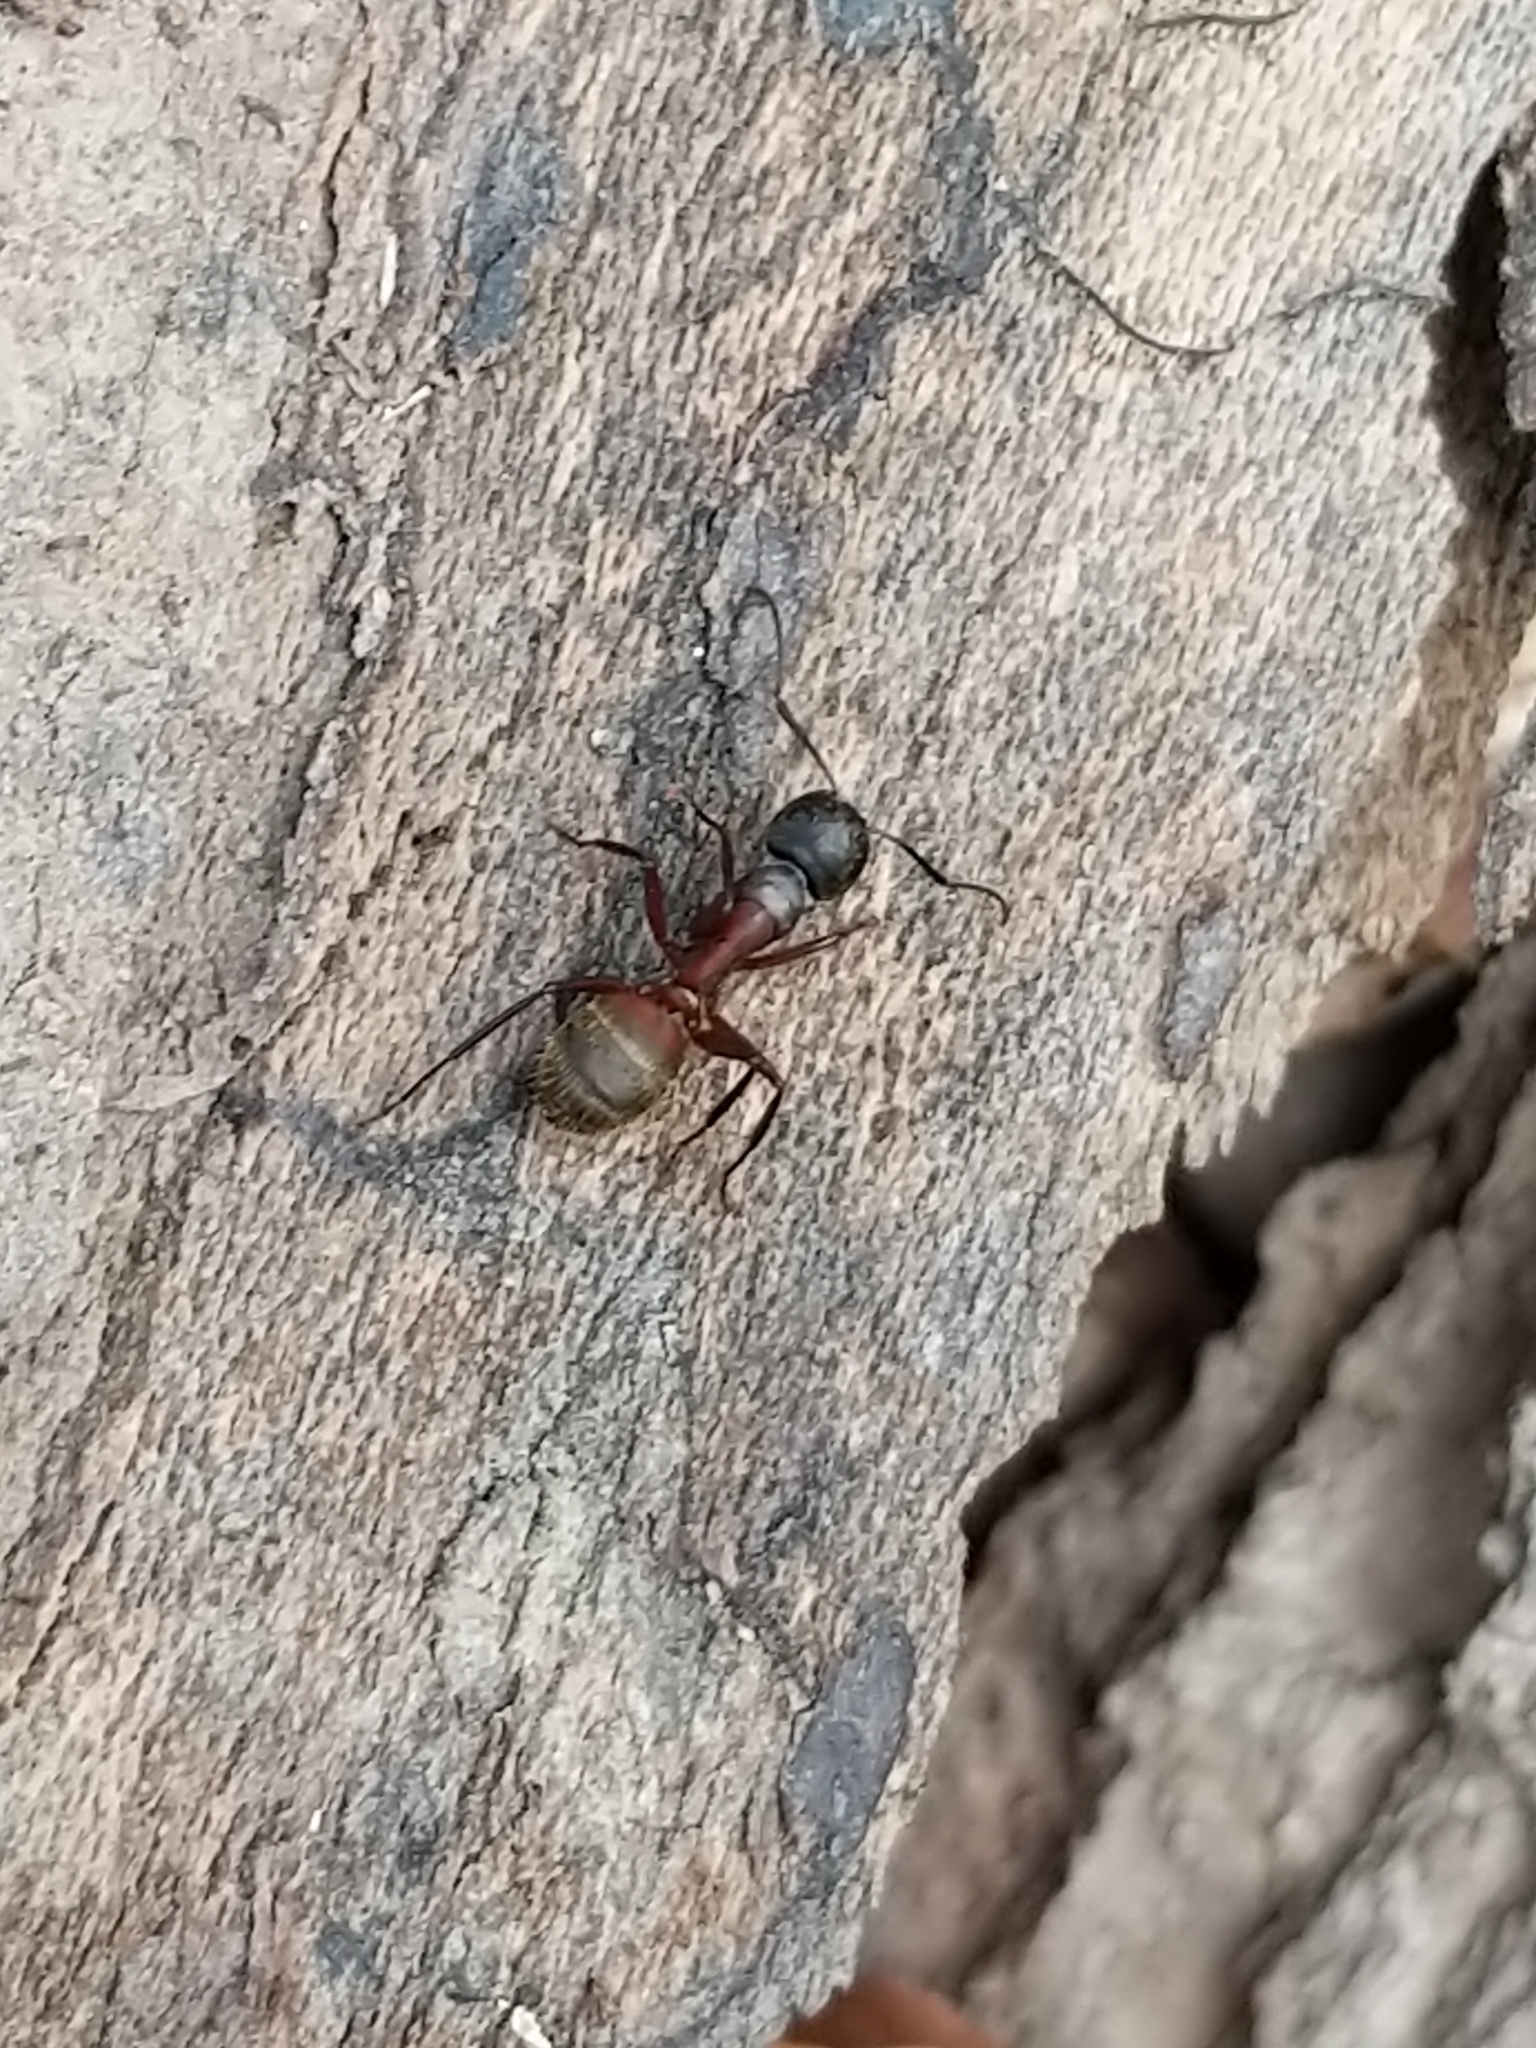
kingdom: Animalia
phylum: Arthropoda
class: Insecta
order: Hymenoptera
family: Formicidae
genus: Camponotus
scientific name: Camponotus chromaiodes
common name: Red carpenter ant
